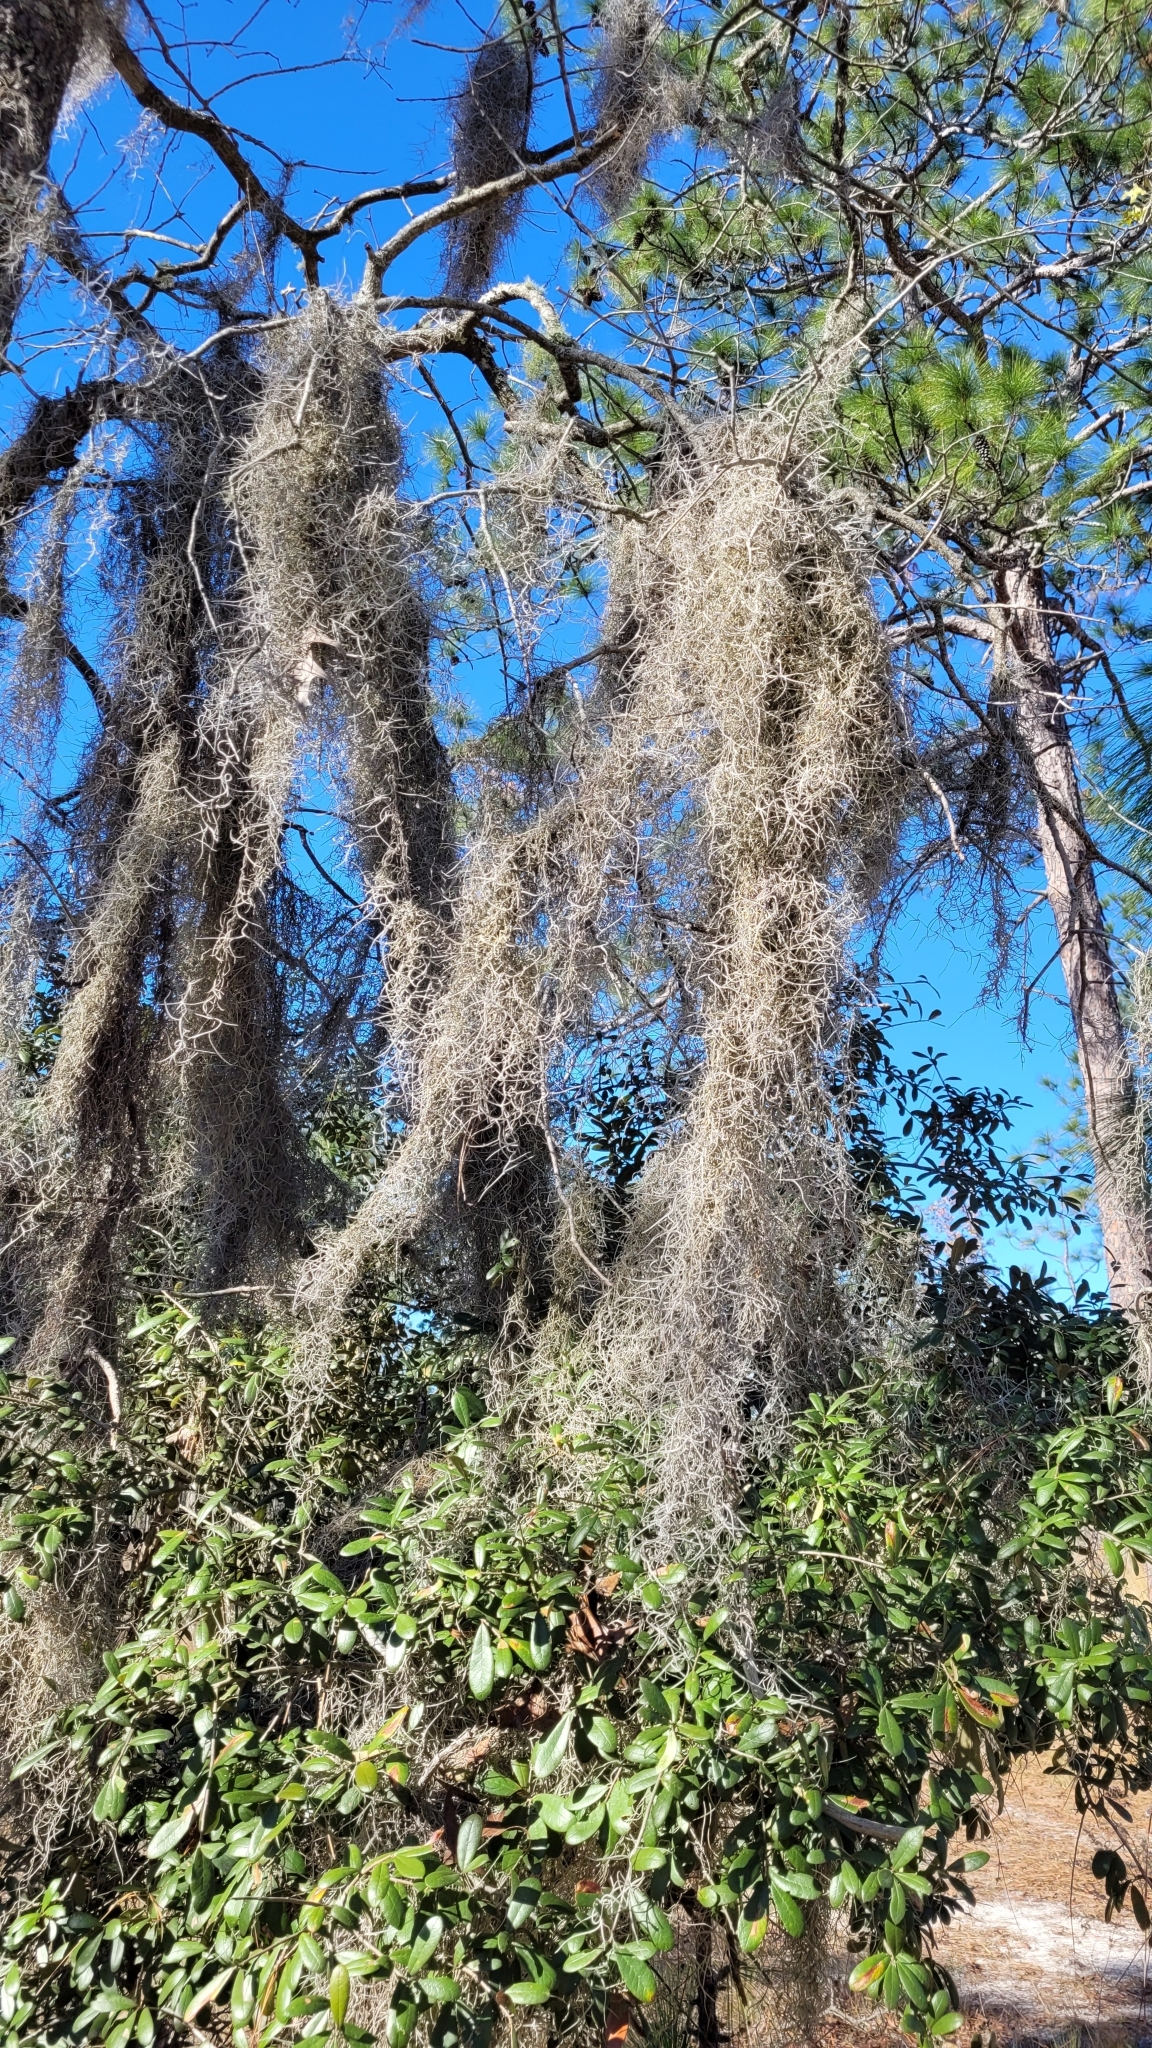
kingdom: Plantae
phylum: Tracheophyta
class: Liliopsida
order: Poales
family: Bromeliaceae
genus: Tillandsia
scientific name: Tillandsia usneoides
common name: Spanish moss
